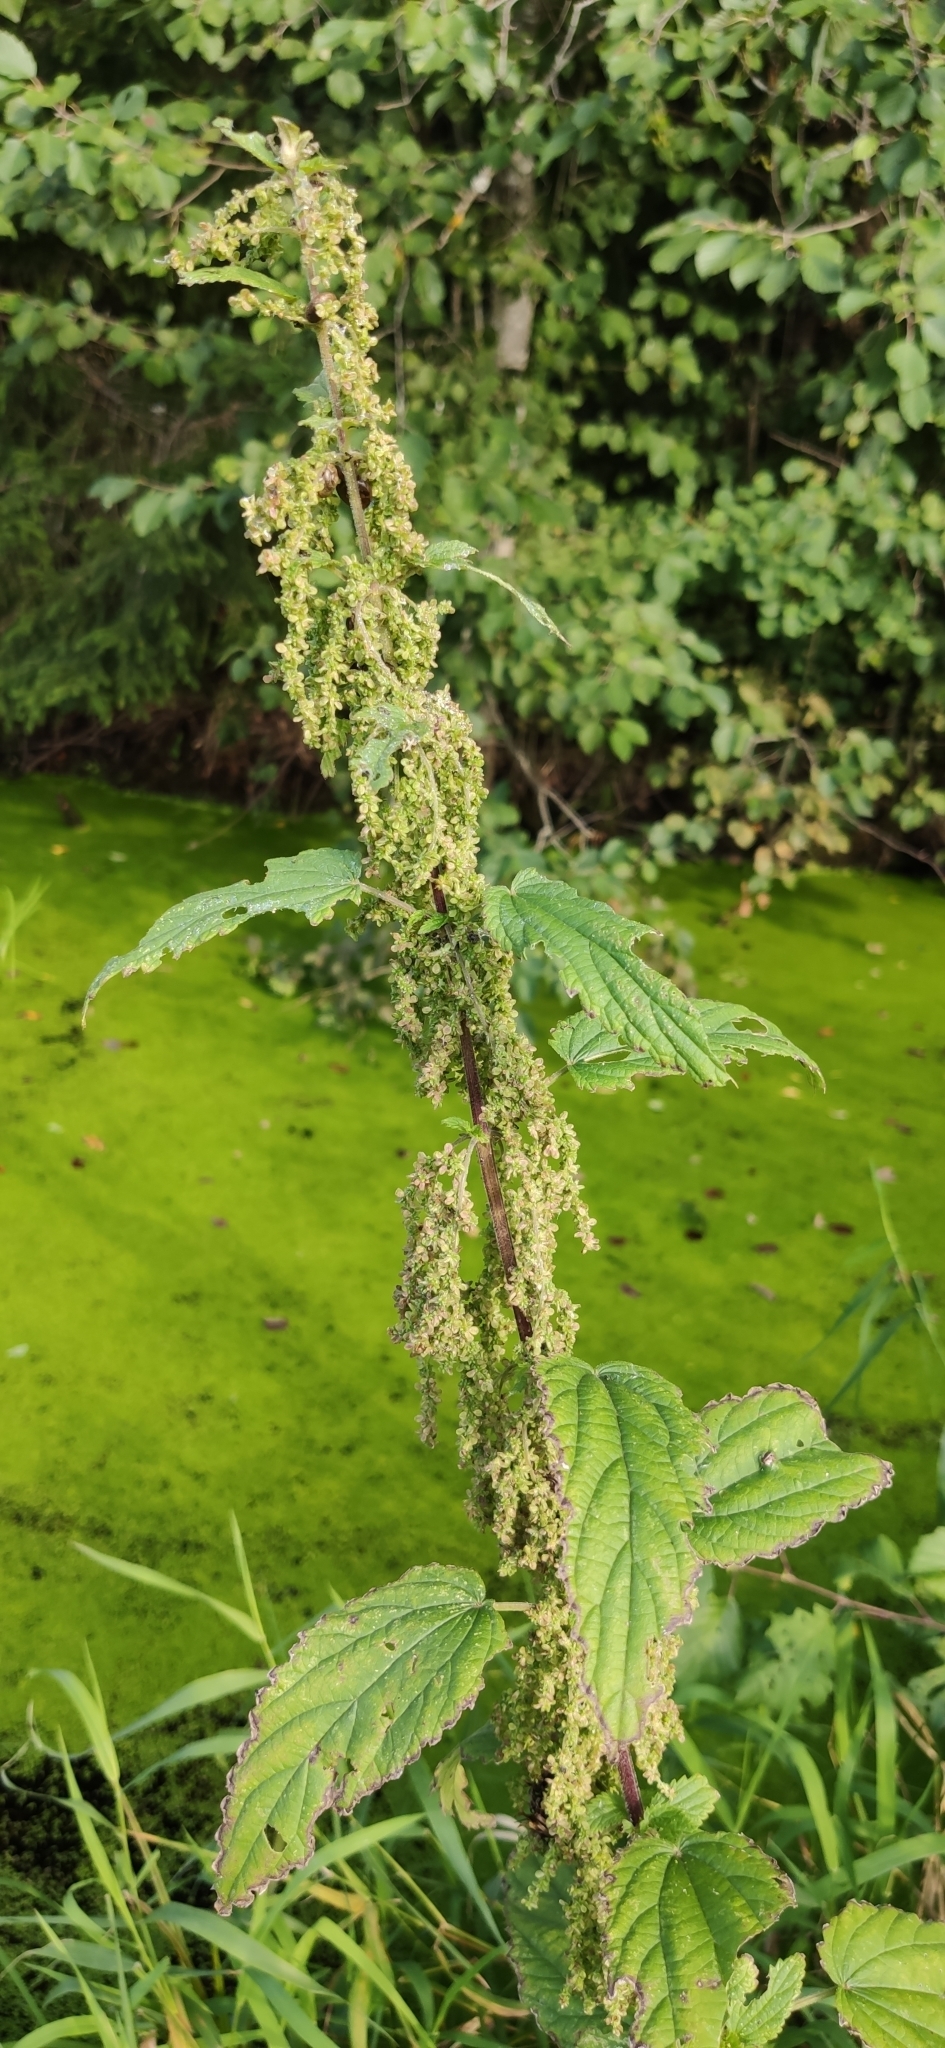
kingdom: Plantae
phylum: Tracheophyta
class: Magnoliopsida
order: Rosales
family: Urticaceae
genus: Urtica
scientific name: Urtica dioica
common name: Common nettle
